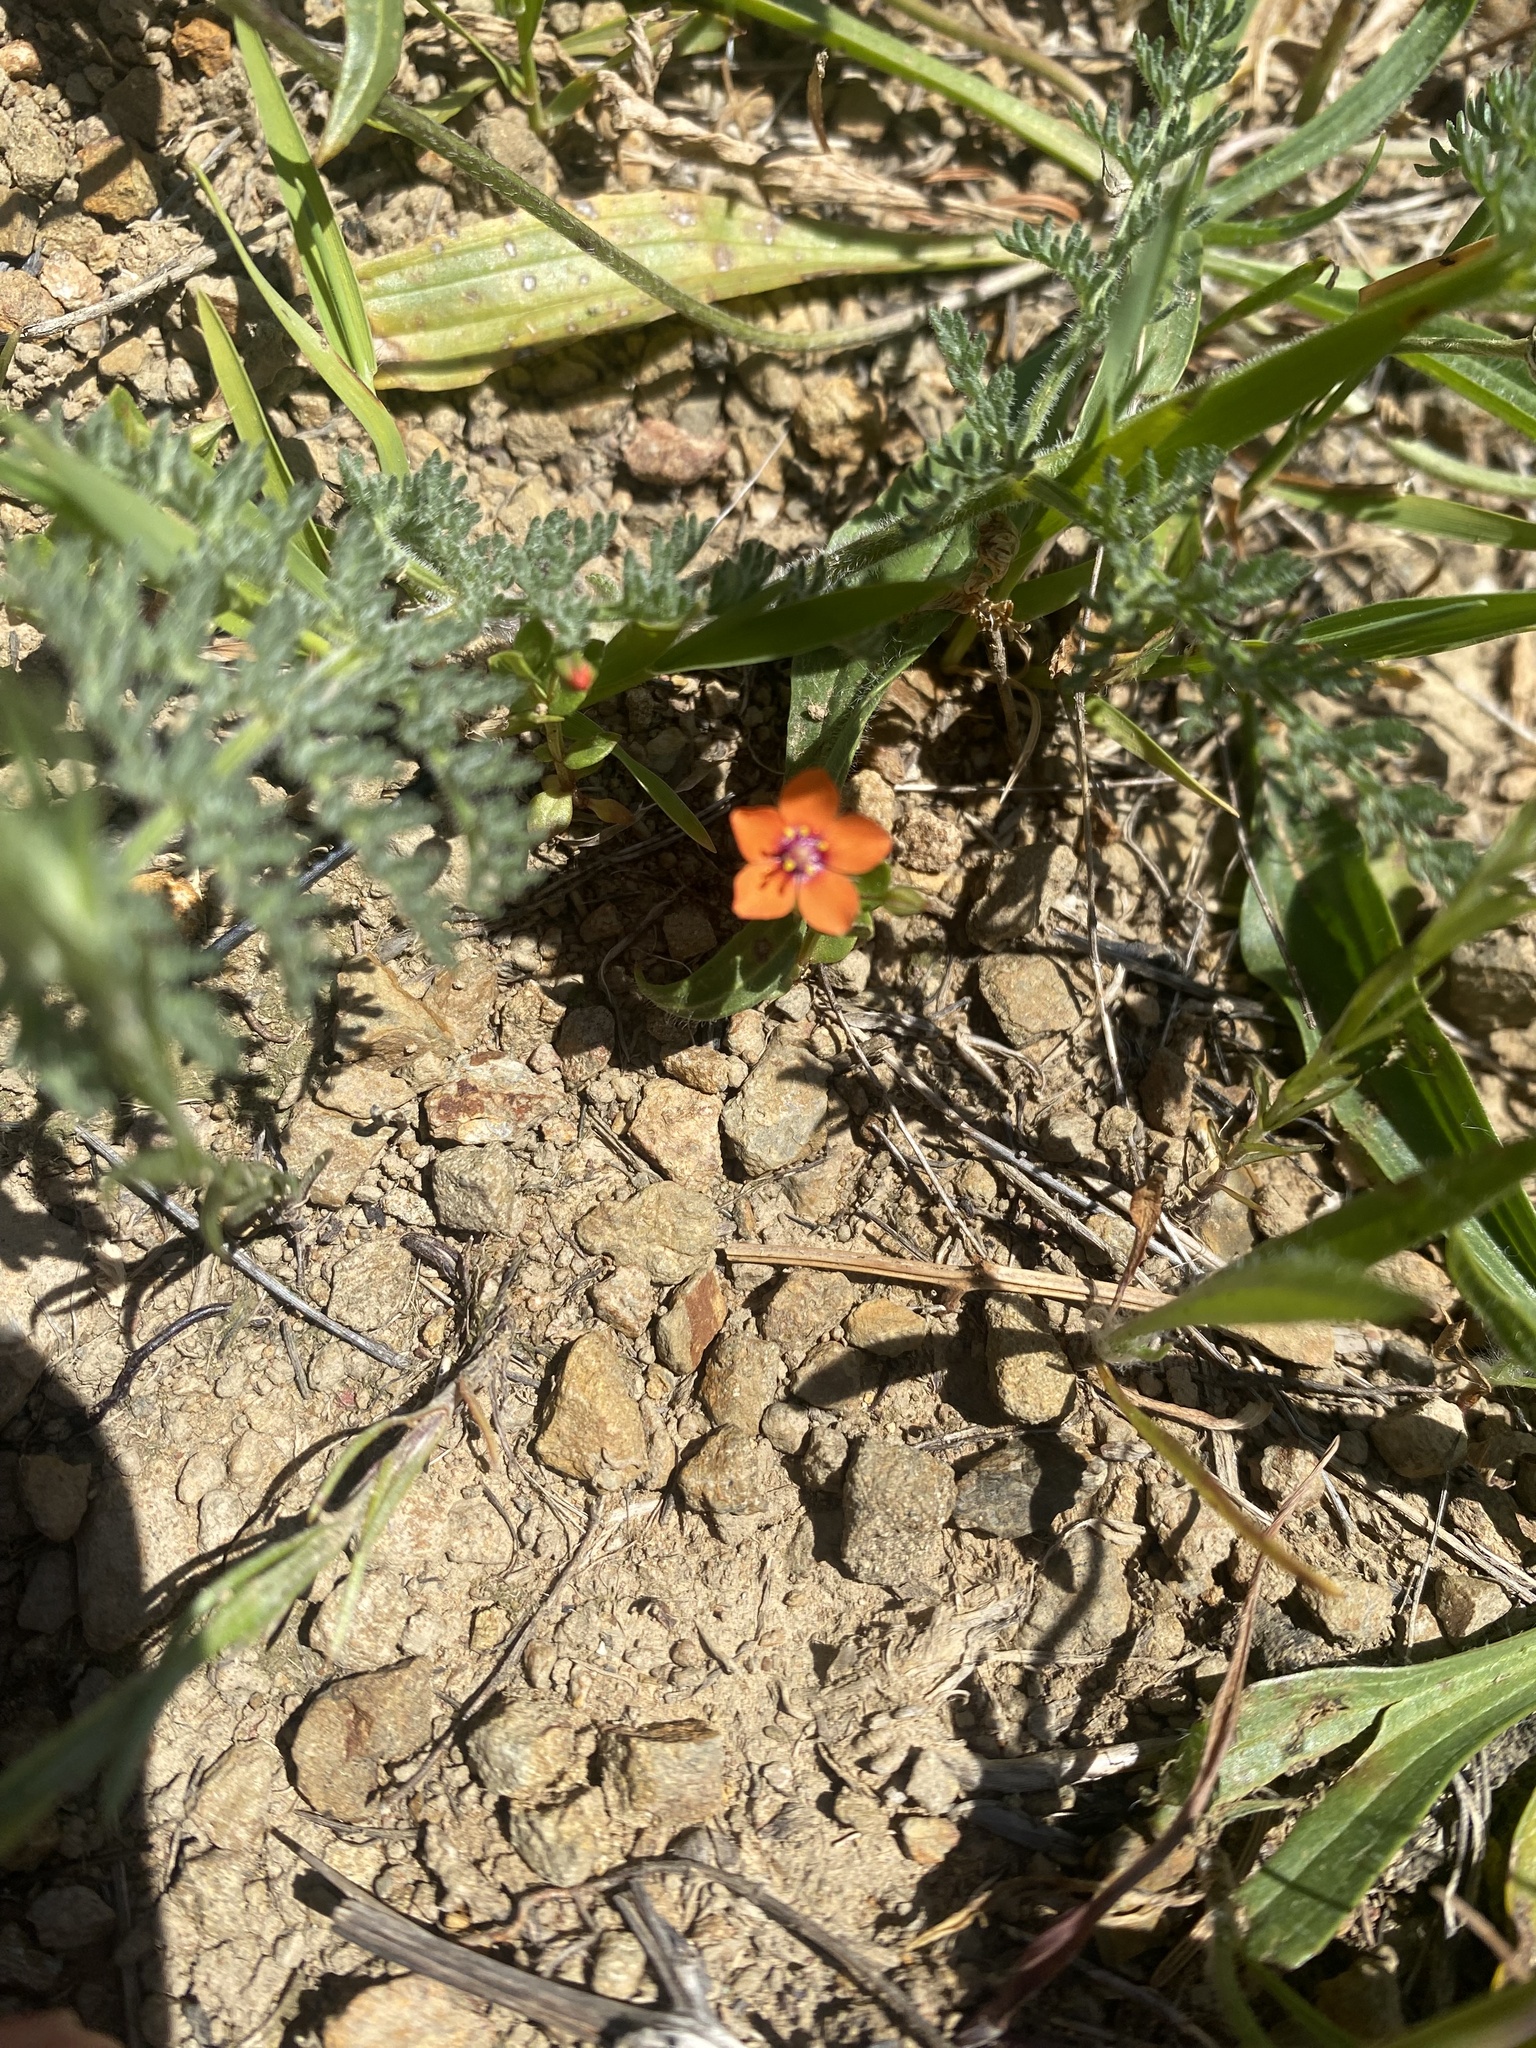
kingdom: Plantae
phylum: Tracheophyta
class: Magnoliopsida
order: Ericales
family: Primulaceae
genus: Lysimachia
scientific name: Lysimachia arvensis
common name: Scarlet pimpernel
